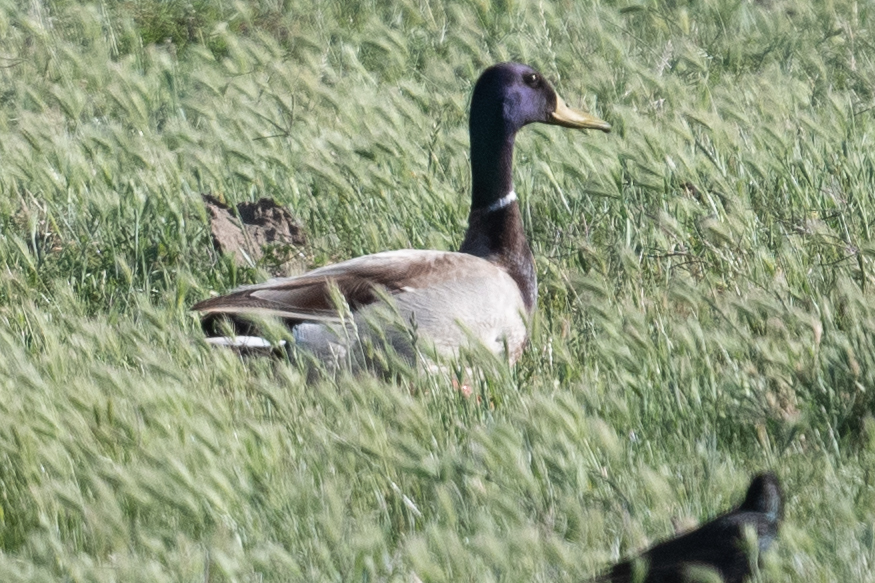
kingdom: Animalia
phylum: Chordata
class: Aves
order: Anseriformes
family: Anatidae
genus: Anas
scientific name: Anas platyrhynchos
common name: Mallard
